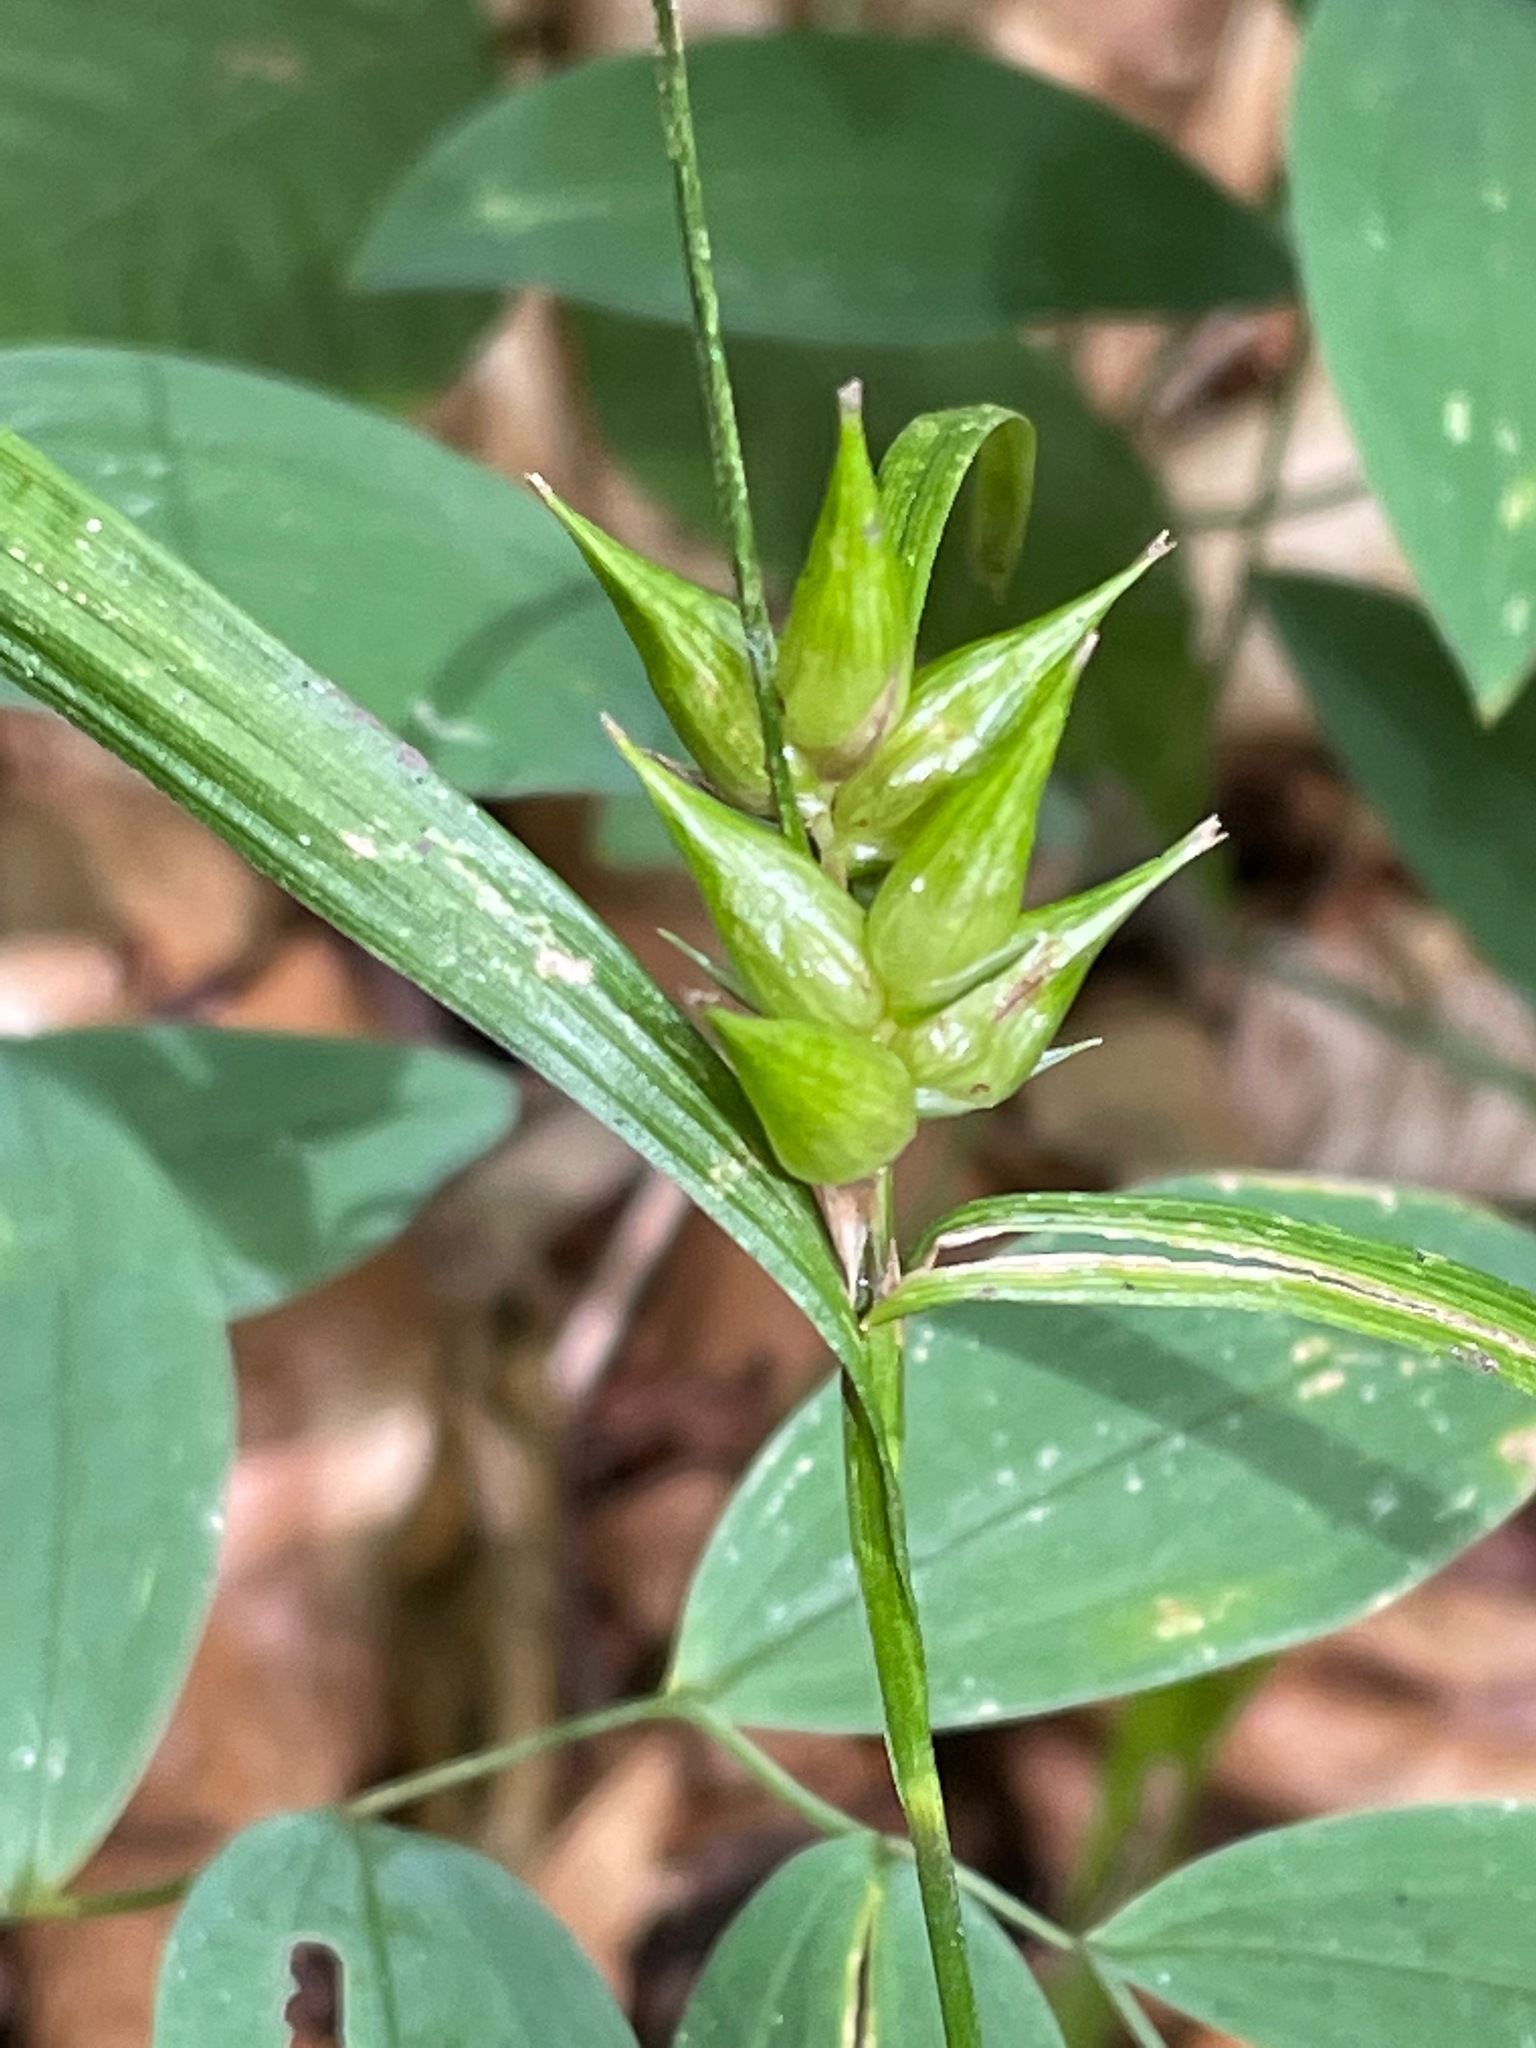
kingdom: Plantae
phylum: Tracheophyta
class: Liliopsida
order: Poales
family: Cyperaceae
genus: Carex
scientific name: Carex intumescens
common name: Greater bladder sedge
